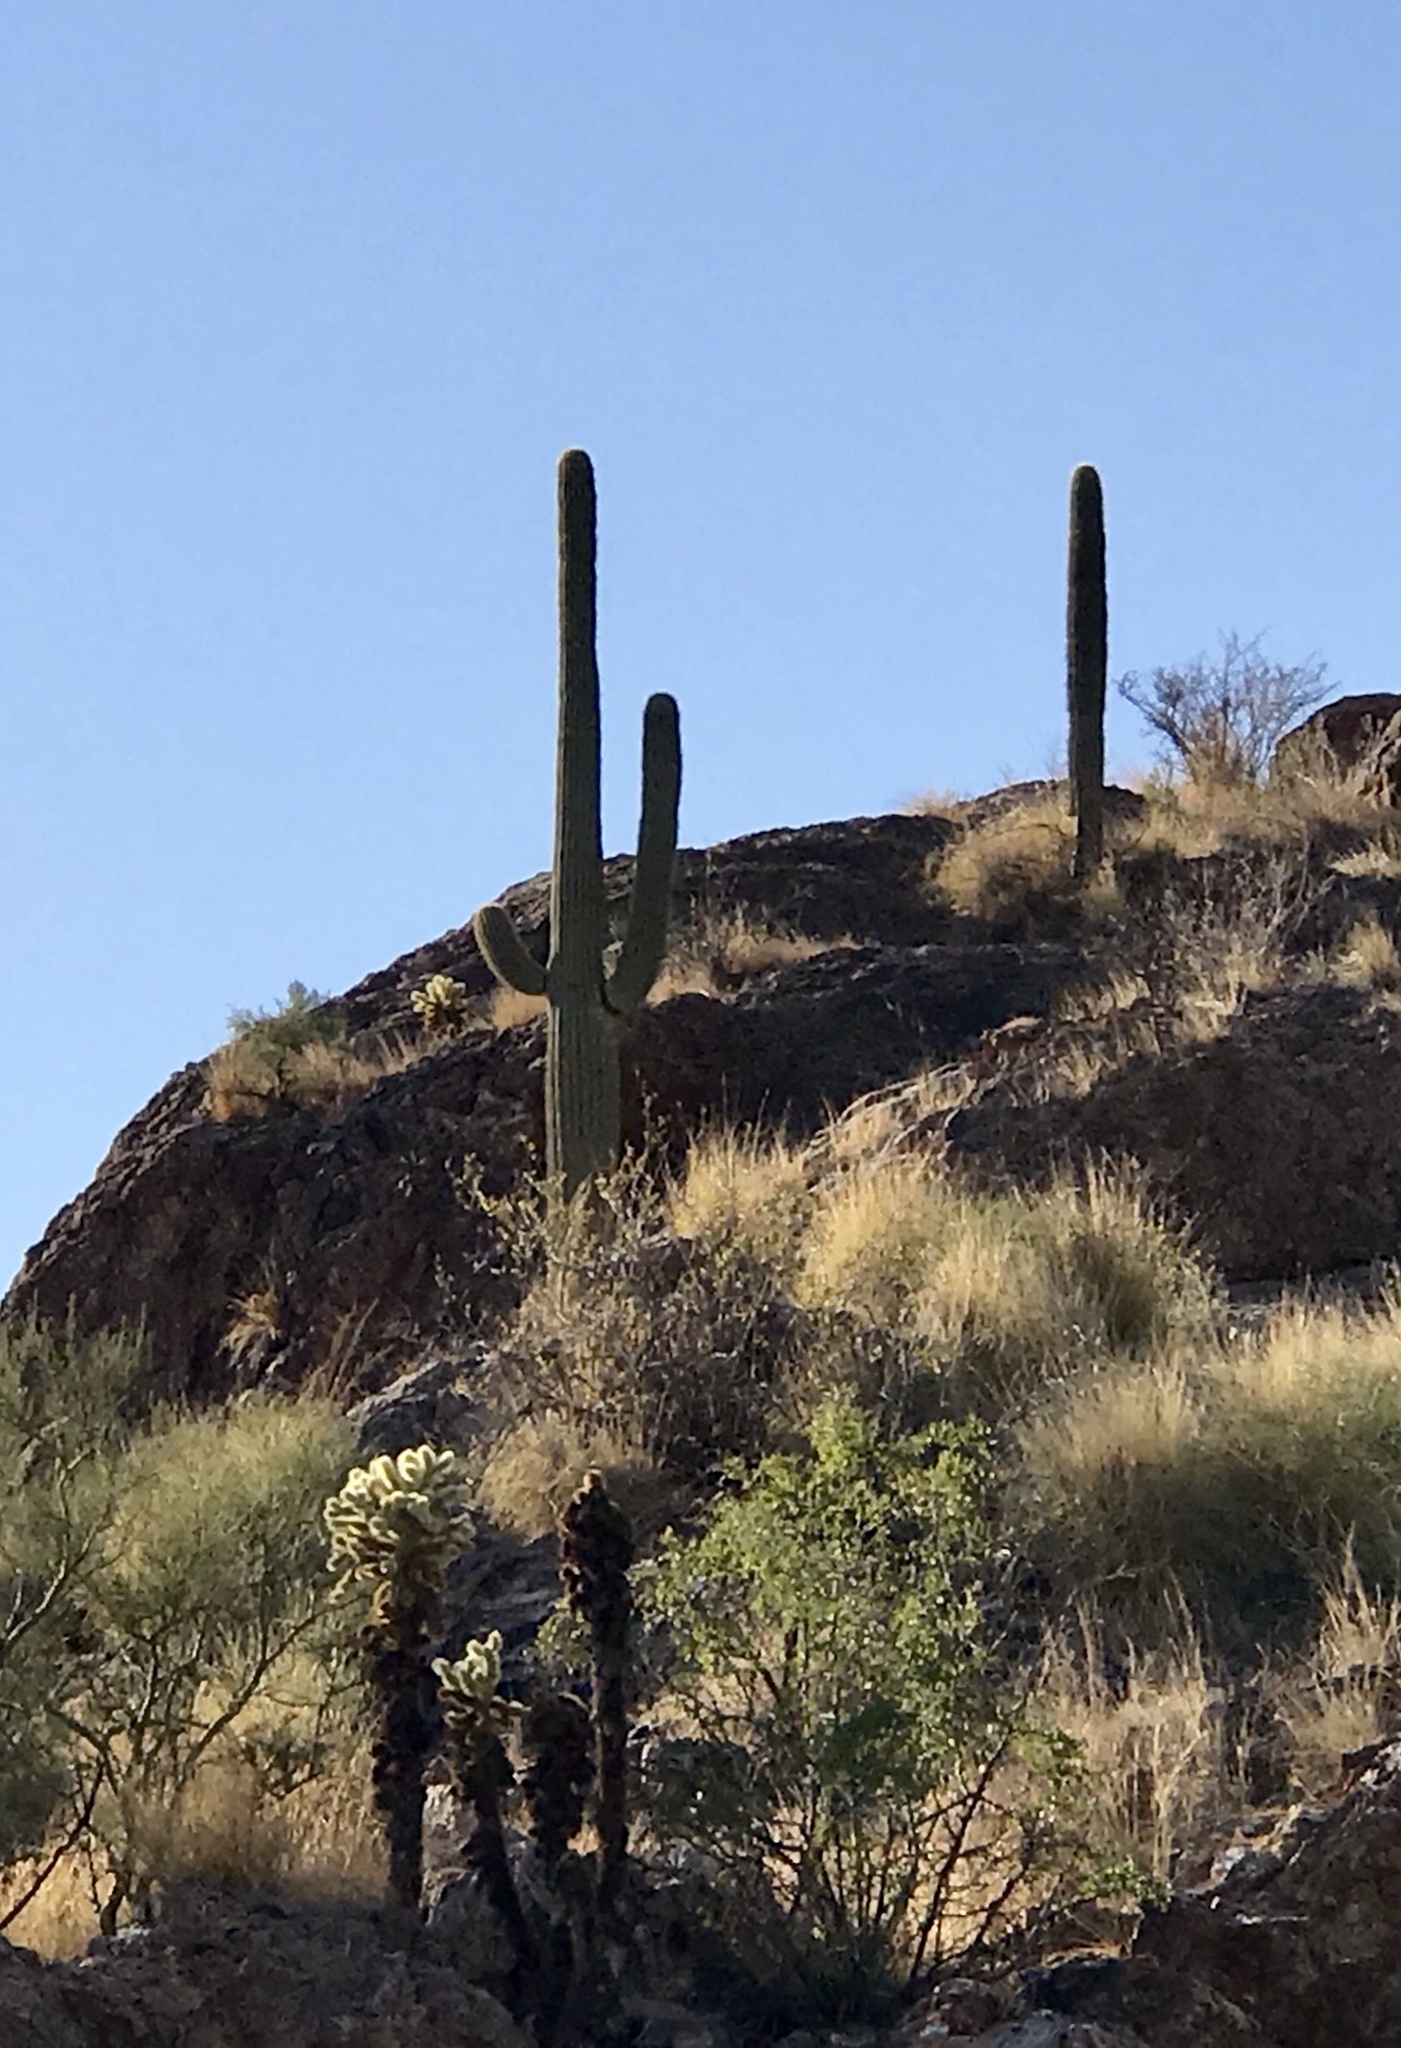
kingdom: Plantae
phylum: Tracheophyta
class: Magnoliopsida
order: Caryophyllales
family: Cactaceae
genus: Carnegiea
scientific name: Carnegiea gigantea
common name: Saguaro
